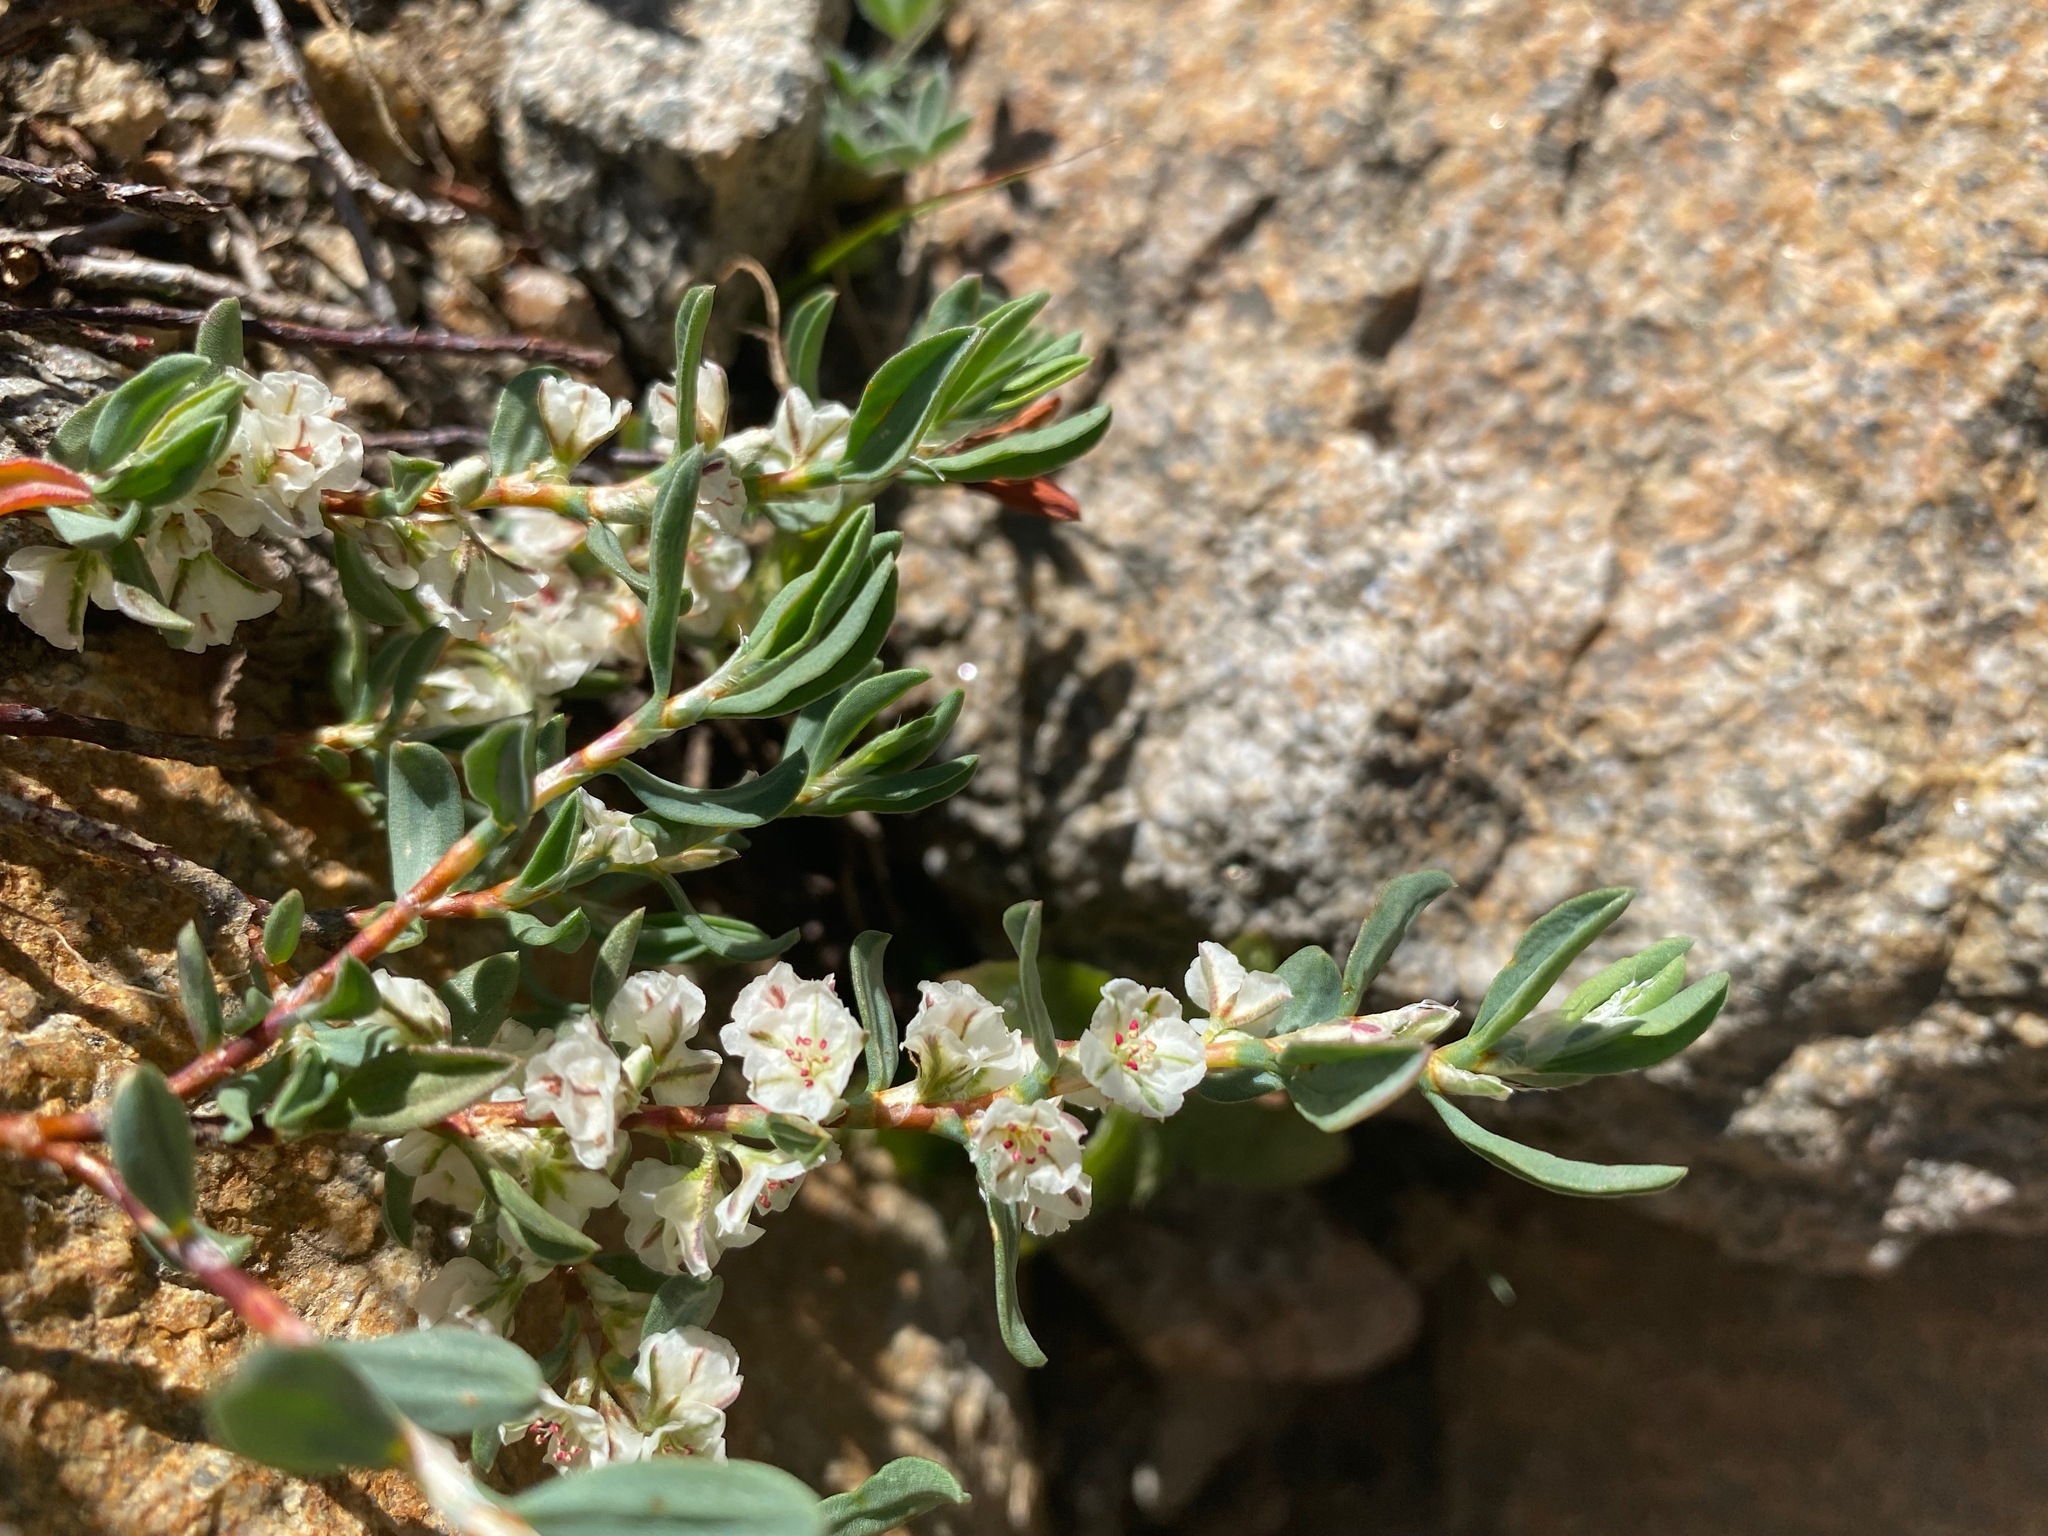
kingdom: Plantae
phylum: Tracheophyta
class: Magnoliopsida
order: Caryophyllales
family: Polygonaceae
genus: Polygonum
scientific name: Polygonum shastense
